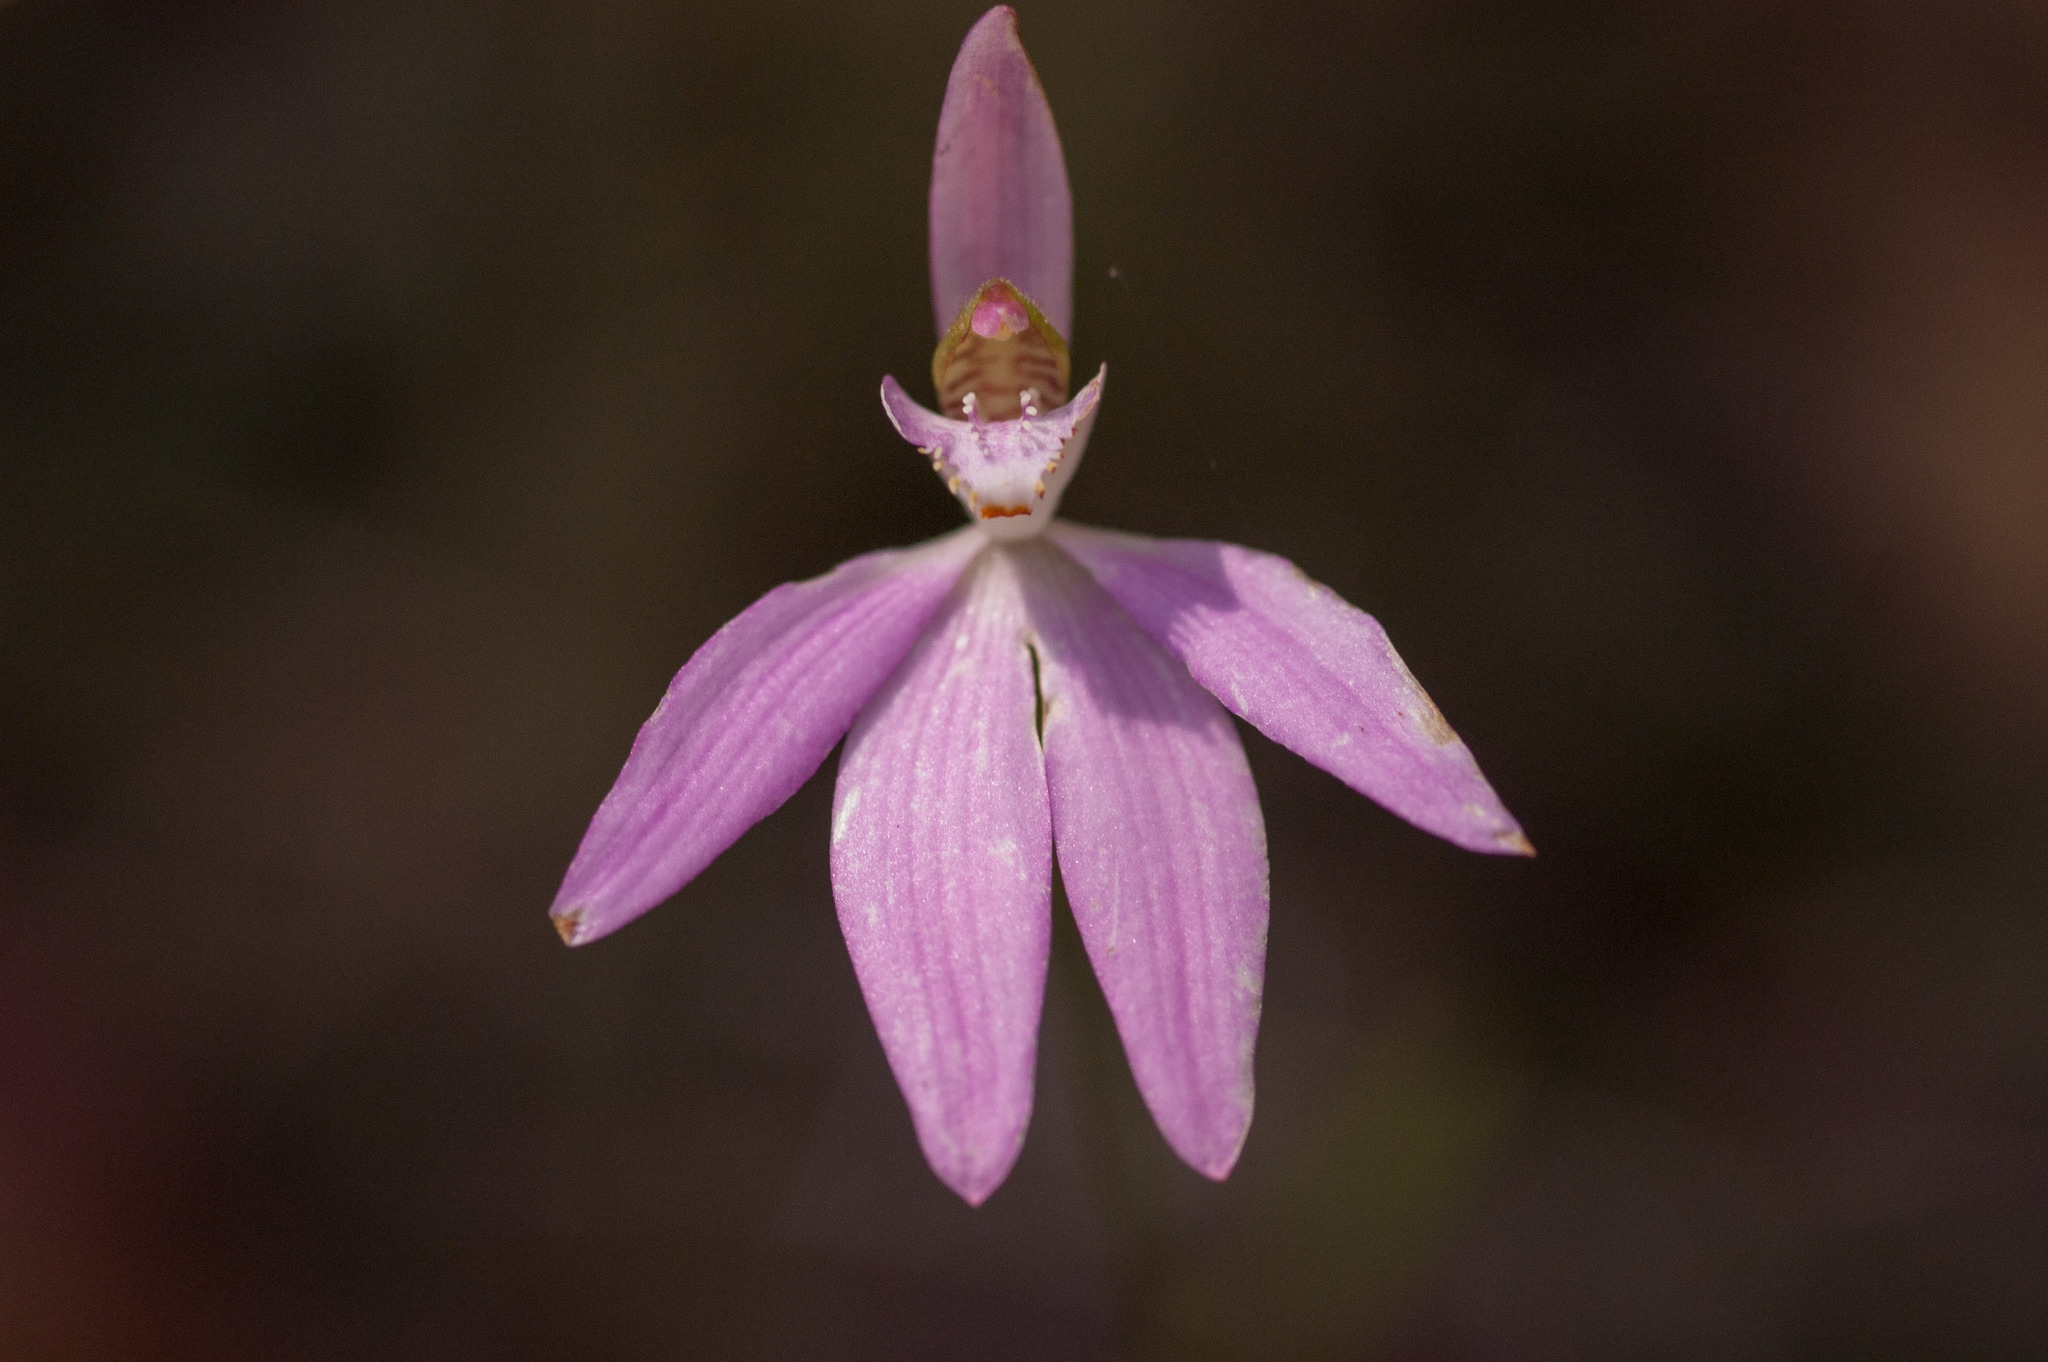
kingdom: Plantae
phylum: Tracheophyta
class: Liliopsida
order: Asparagales
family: Orchidaceae
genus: Caladenia
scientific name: Caladenia porphyrea
